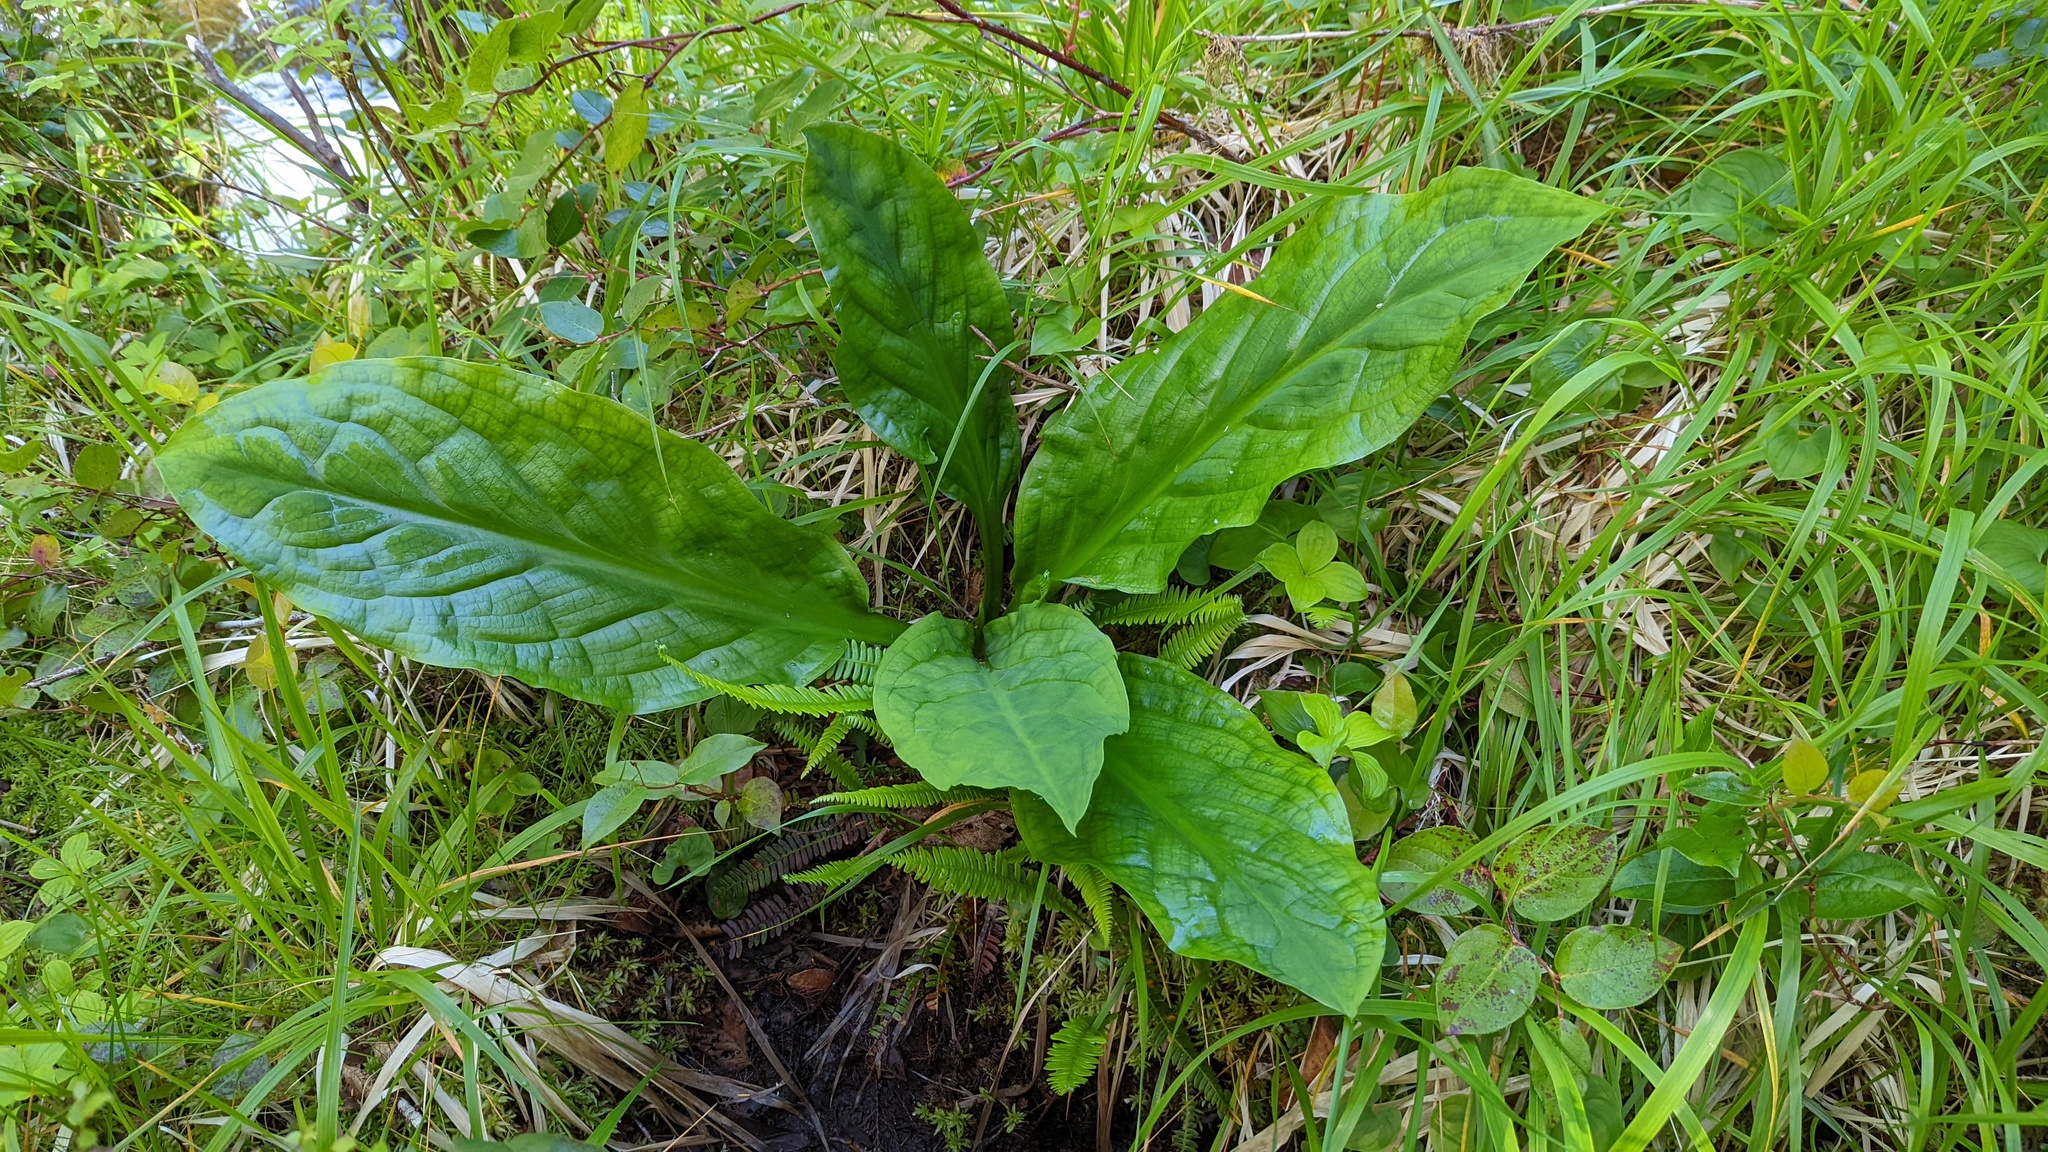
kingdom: Plantae
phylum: Tracheophyta
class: Liliopsida
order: Alismatales
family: Araceae
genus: Lysichiton
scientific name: Lysichiton americanus
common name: American skunk cabbage
